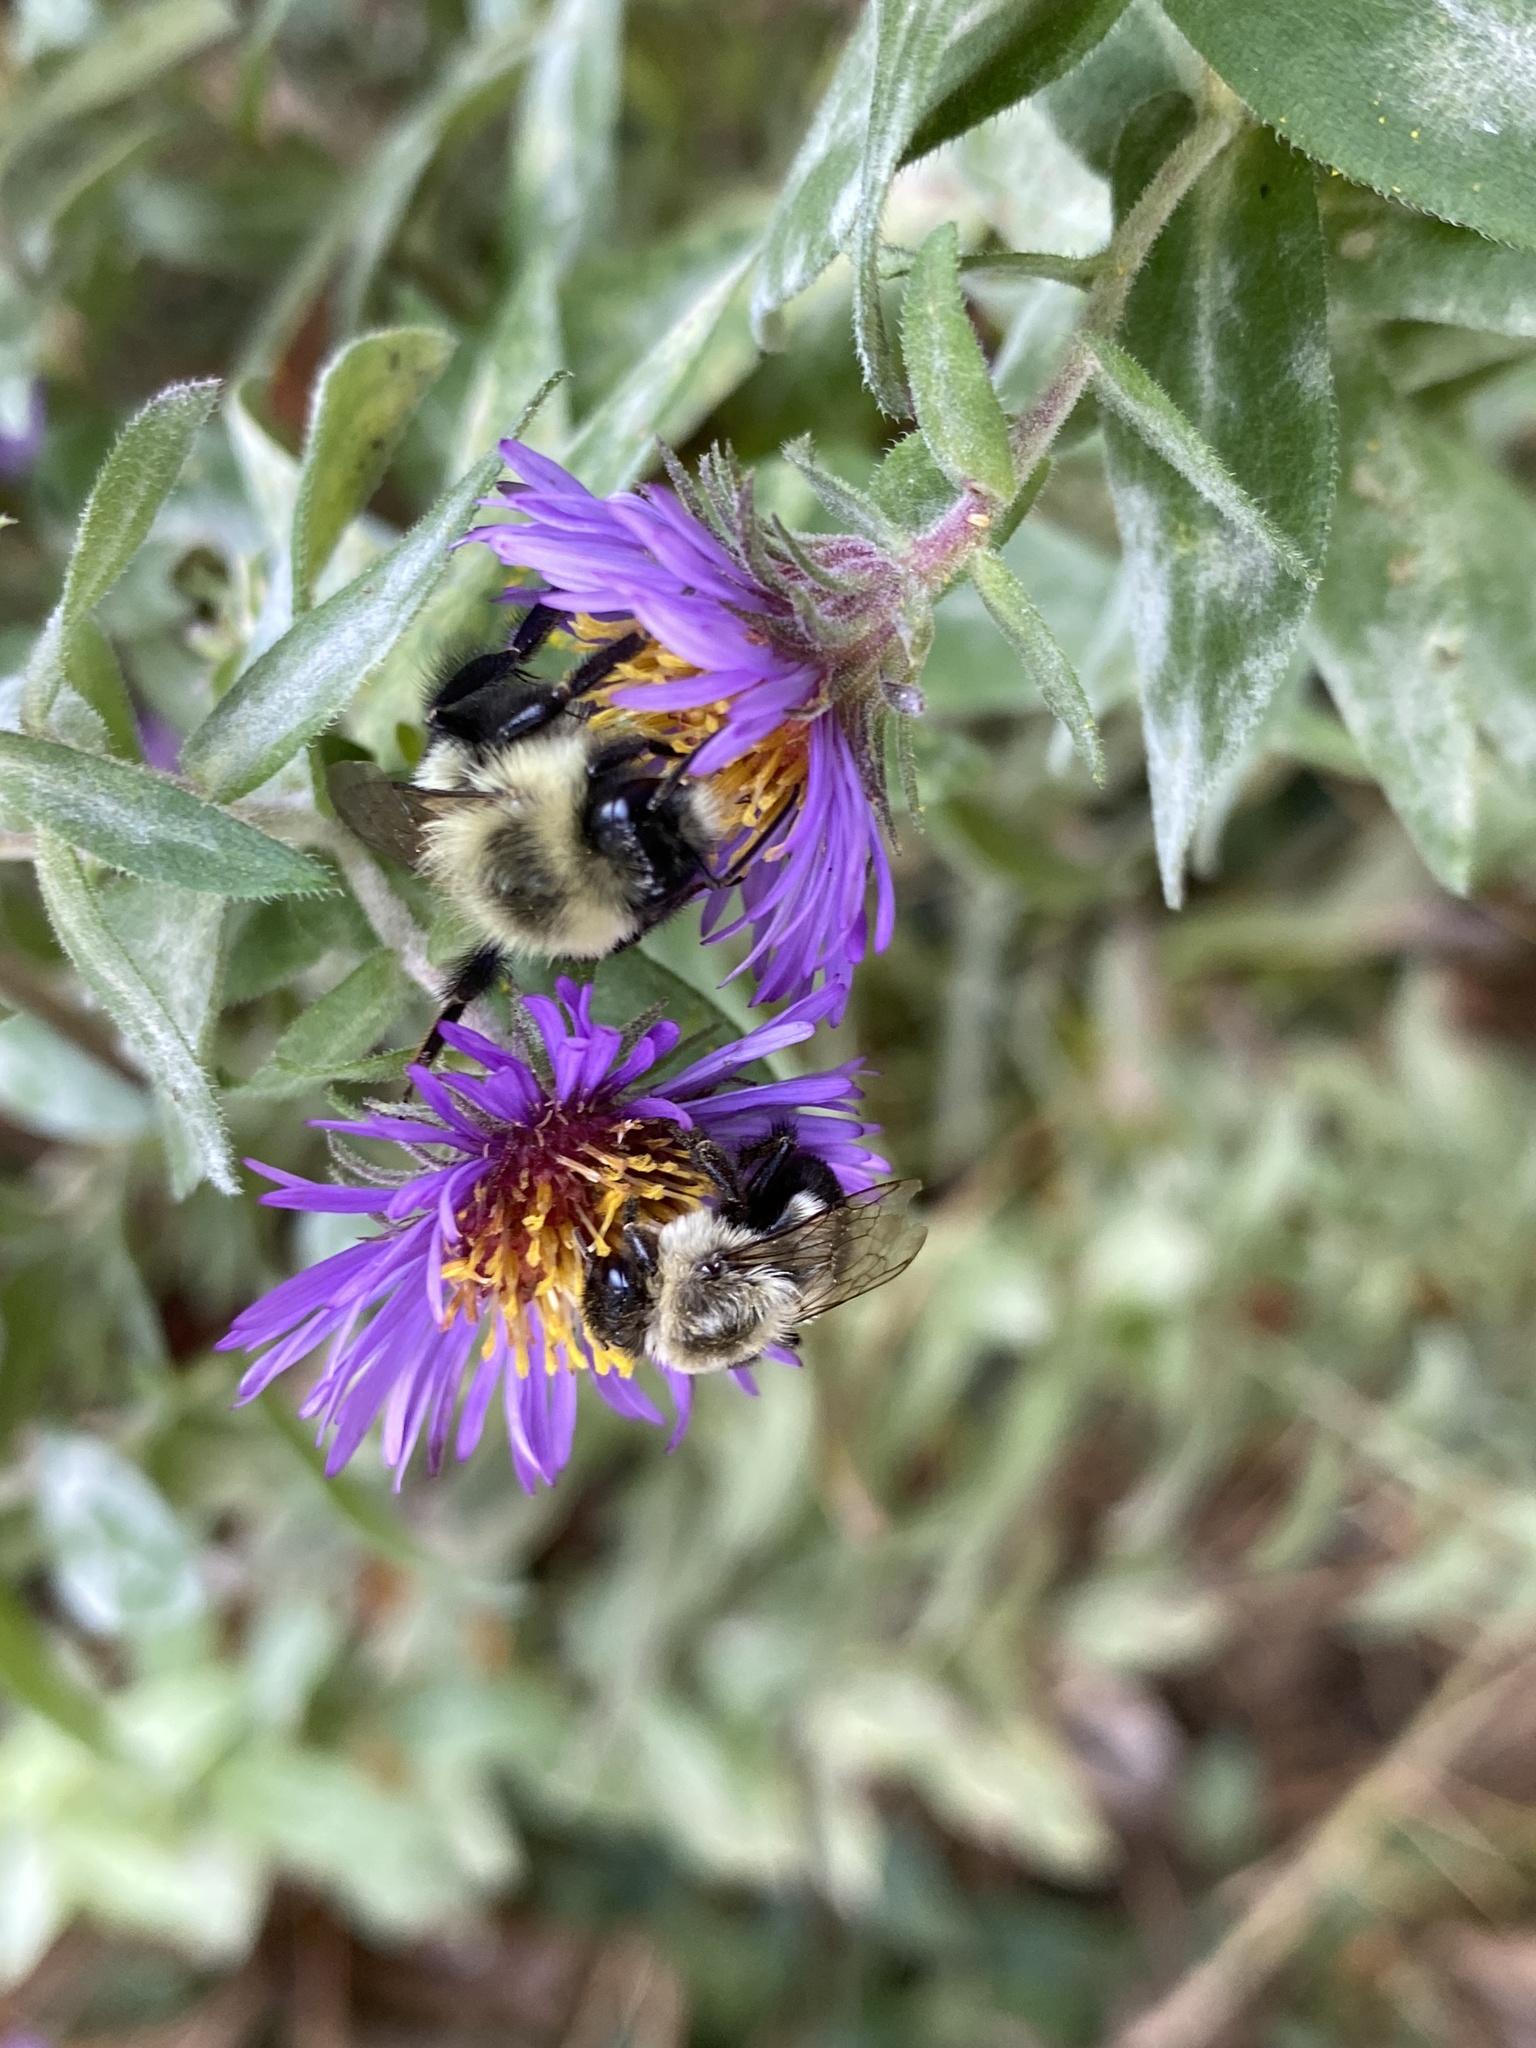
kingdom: Animalia
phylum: Arthropoda
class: Insecta
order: Hymenoptera
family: Apidae
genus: Bombus
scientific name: Bombus impatiens
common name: Common eastern bumble bee
